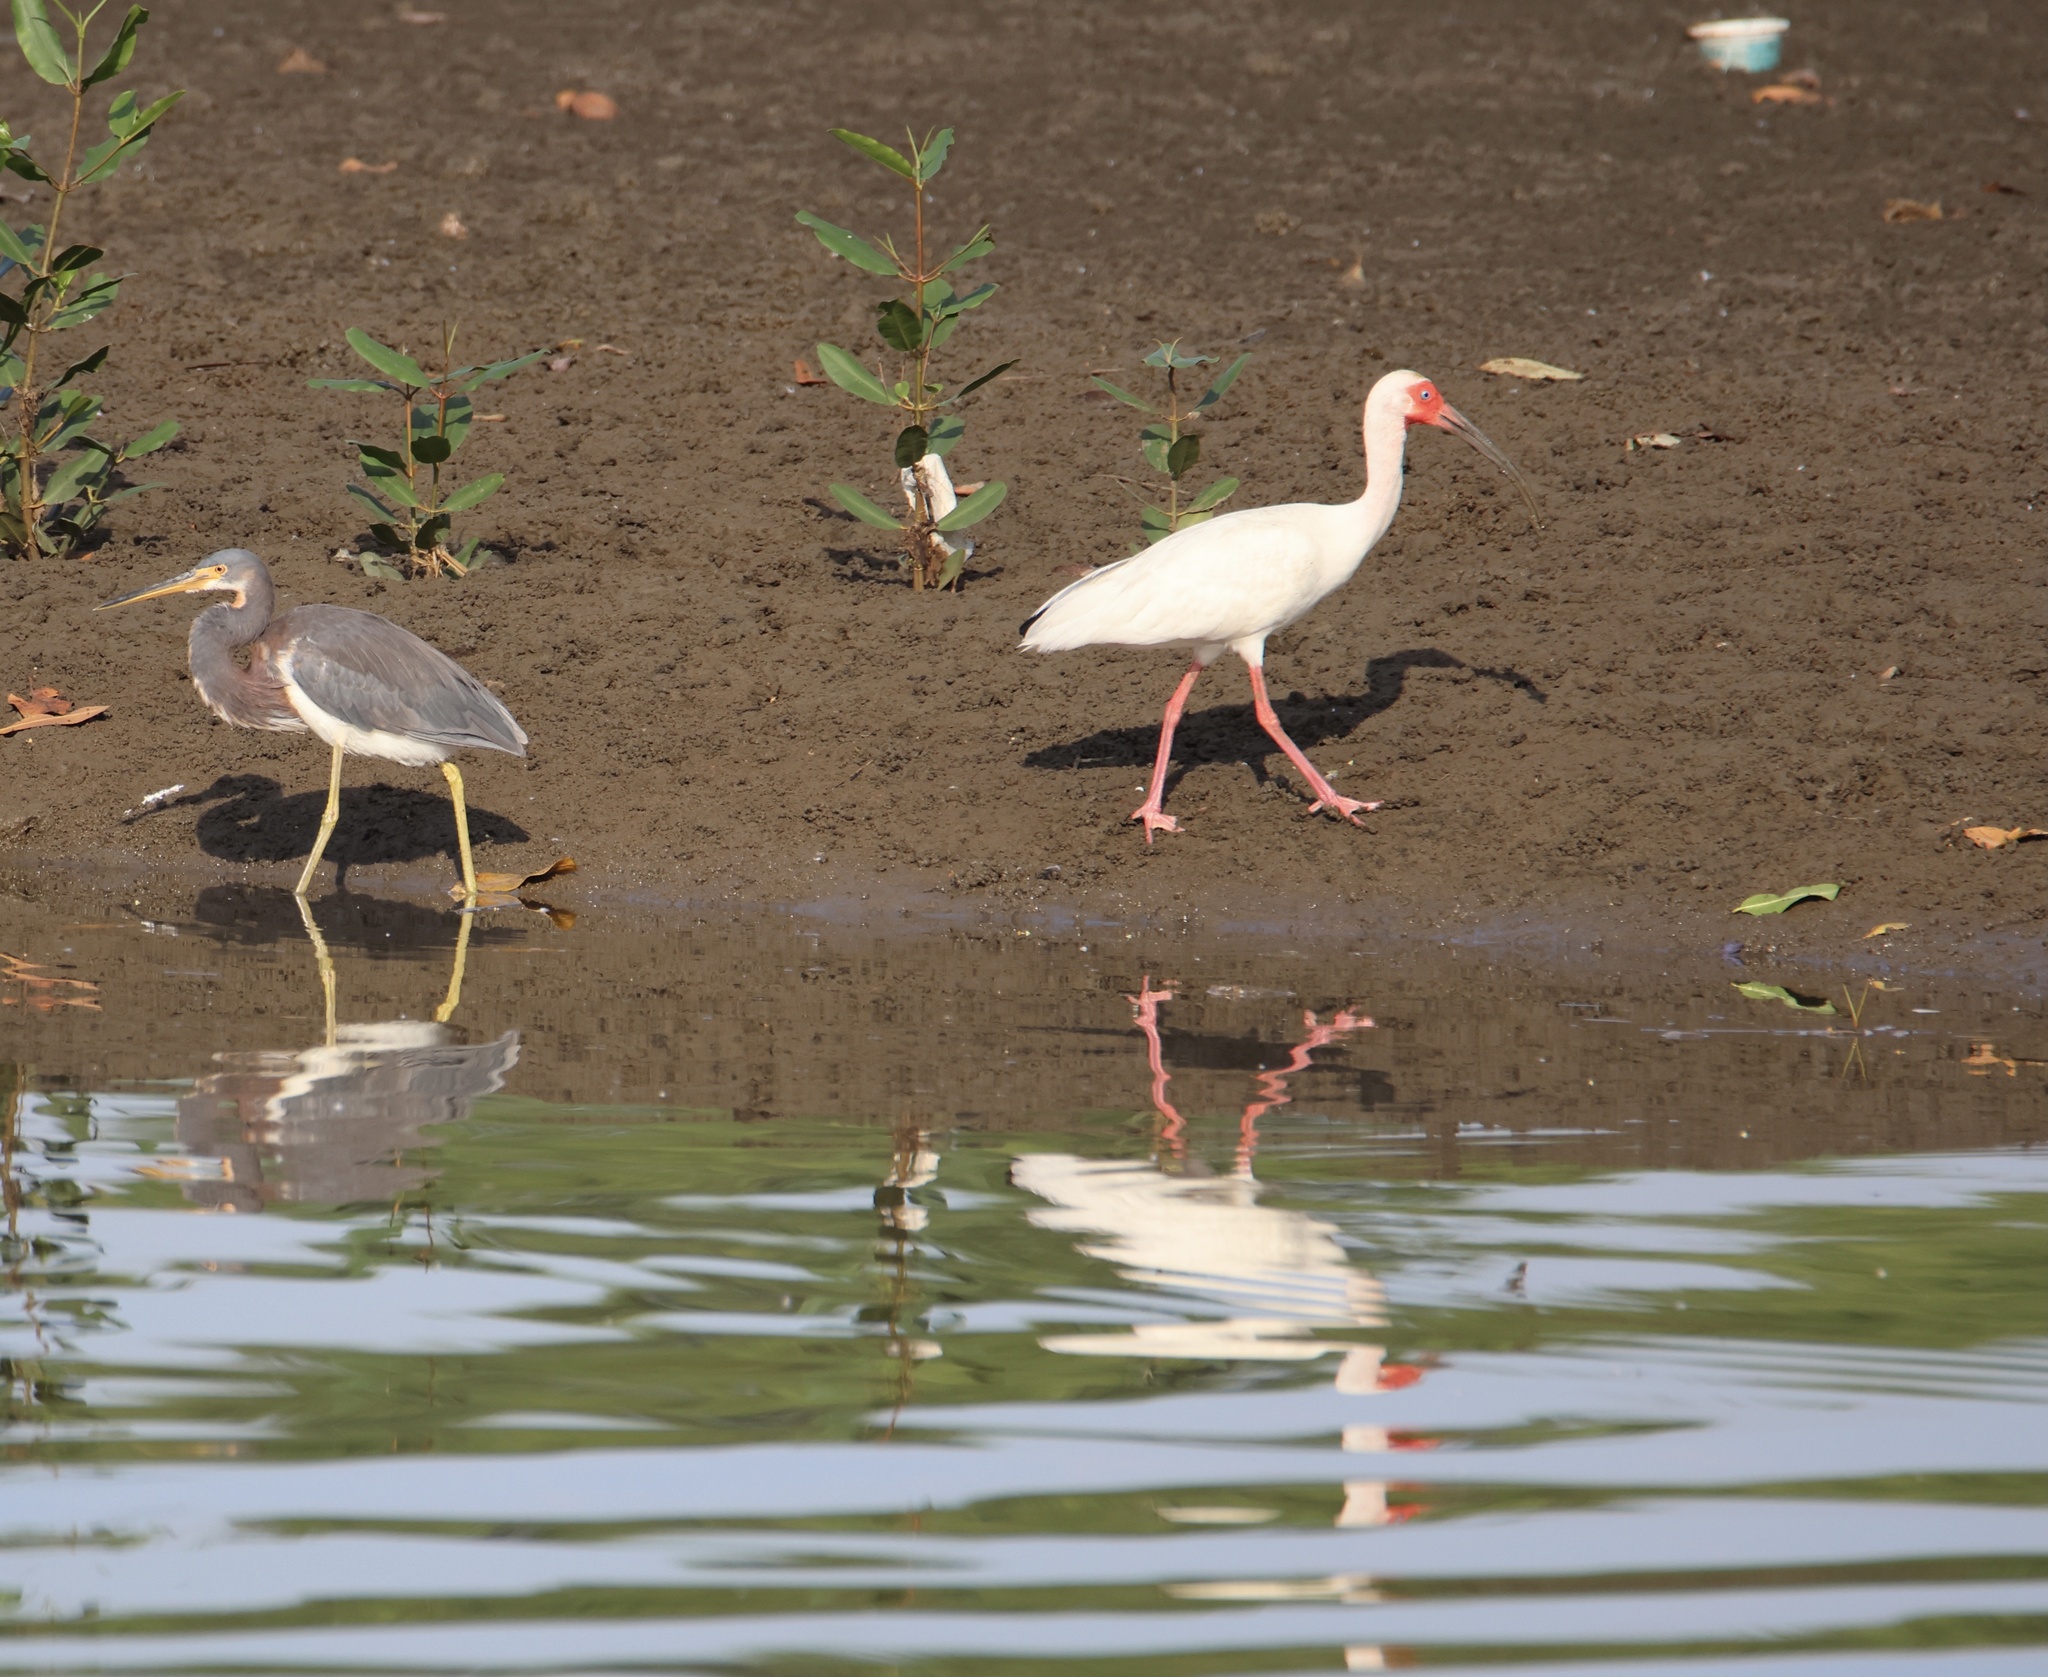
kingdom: Animalia
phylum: Chordata
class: Aves
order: Pelecaniformes
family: Threskiornithidae
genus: Eudocimus
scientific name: Eudocimus albus
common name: White ibis
